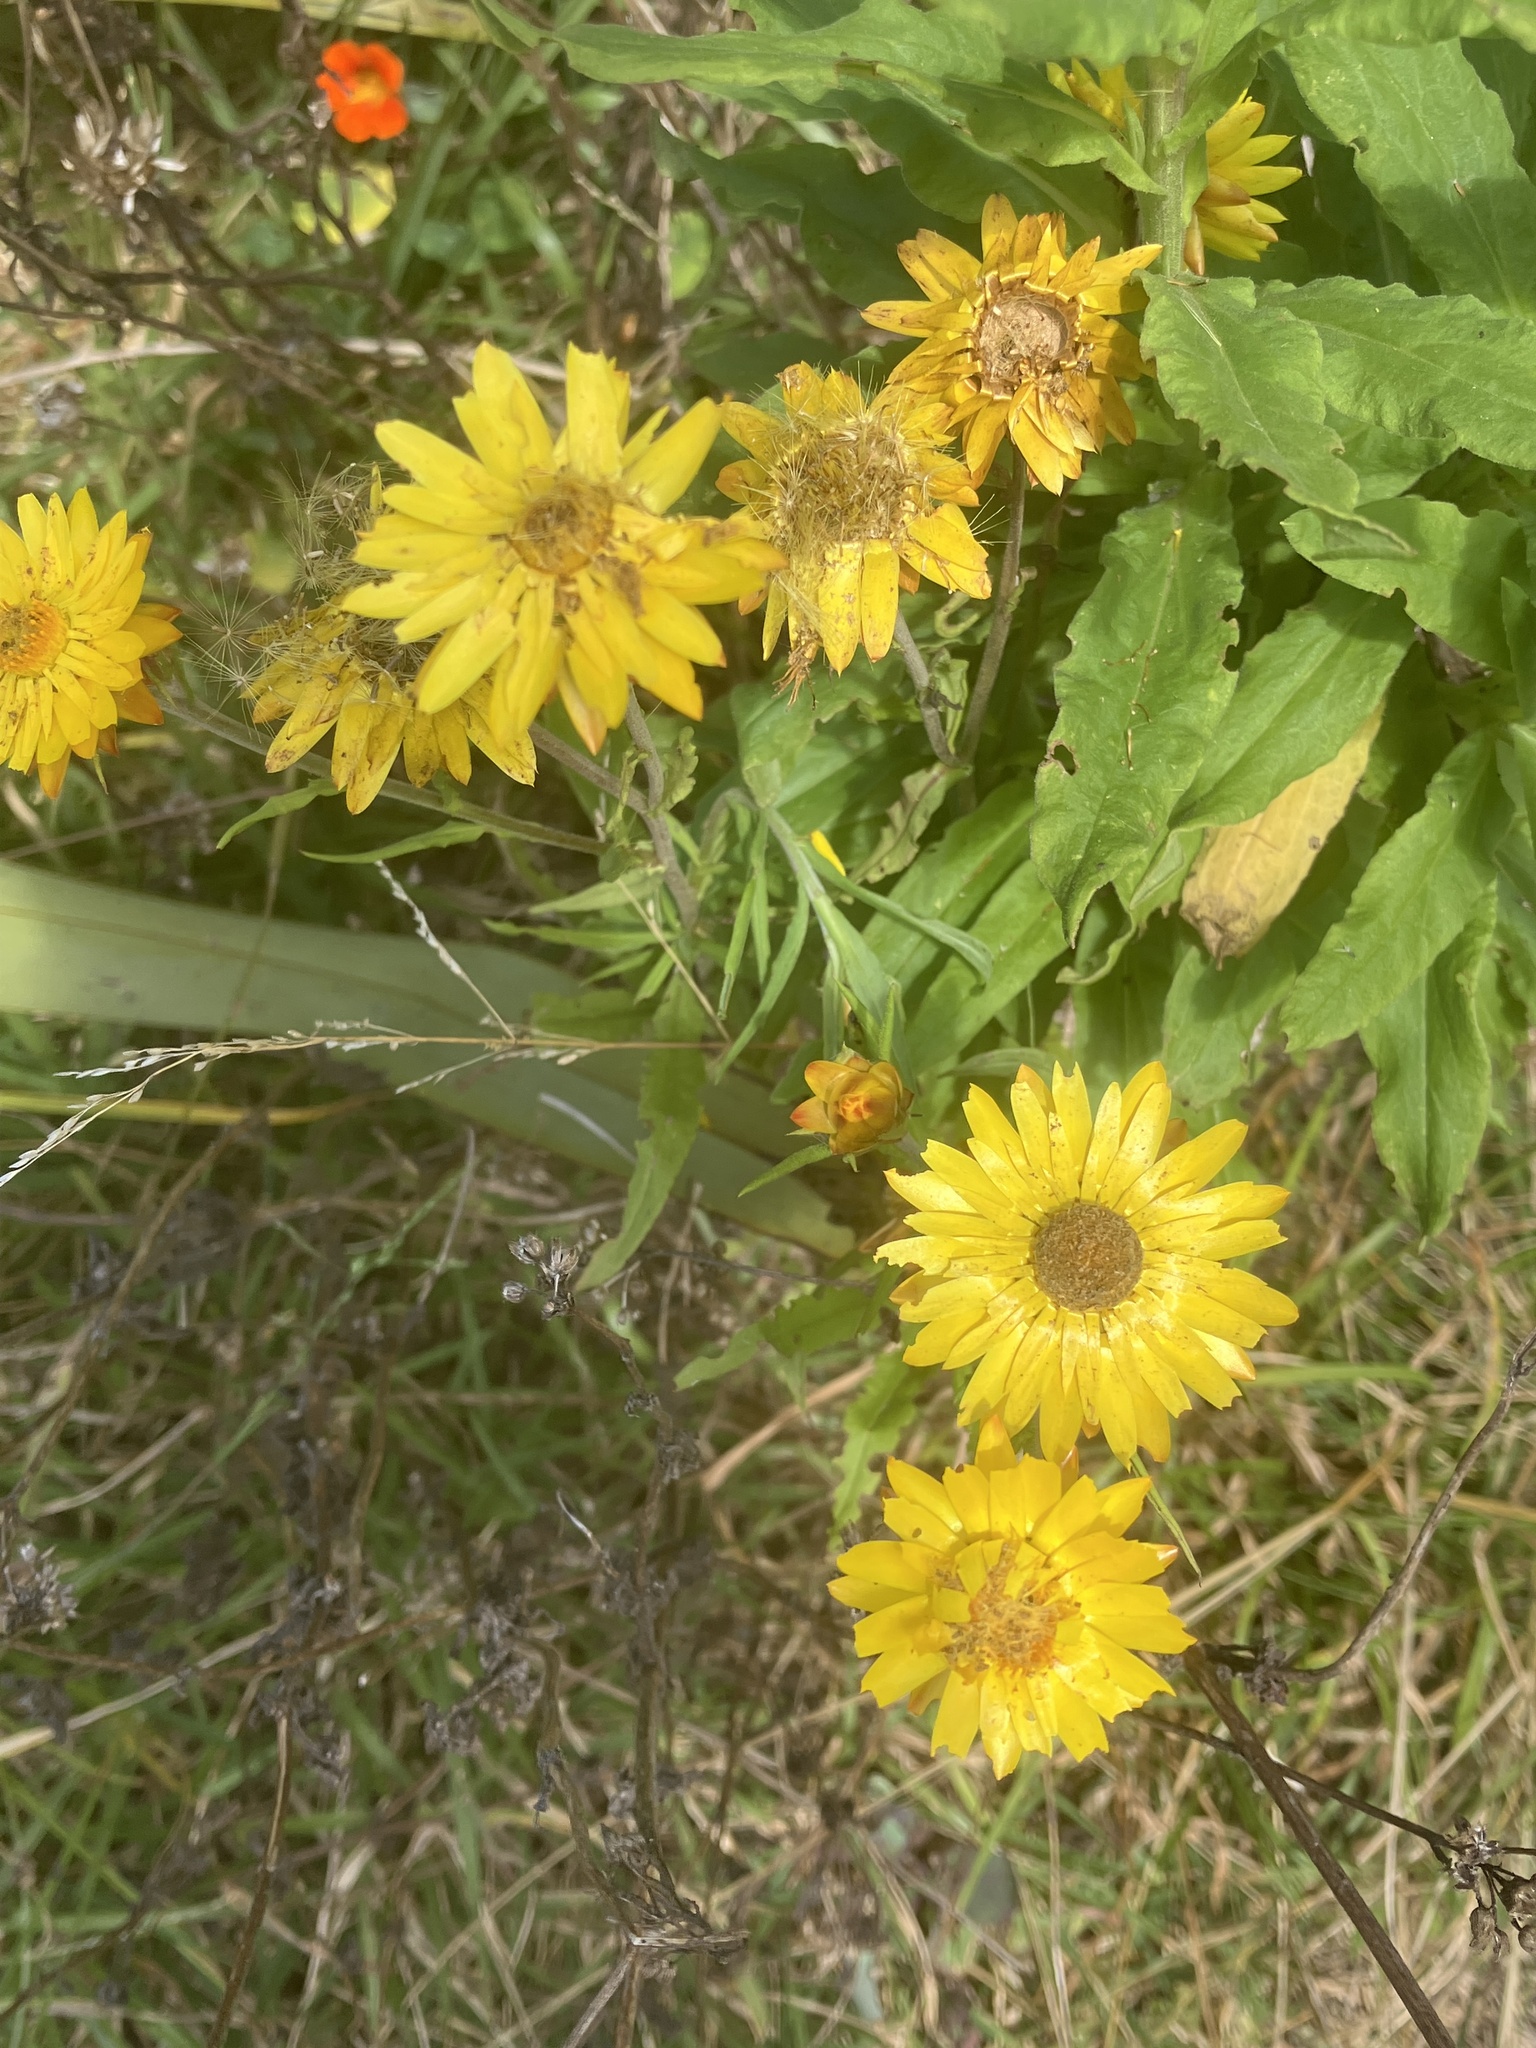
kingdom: Plantae
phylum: Tracheophyta
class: Magnoliopsida
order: Asterales
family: Asteraceae
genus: Xerochrysum
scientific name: Xerochrysum bracteatum
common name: Bracted strawflower
